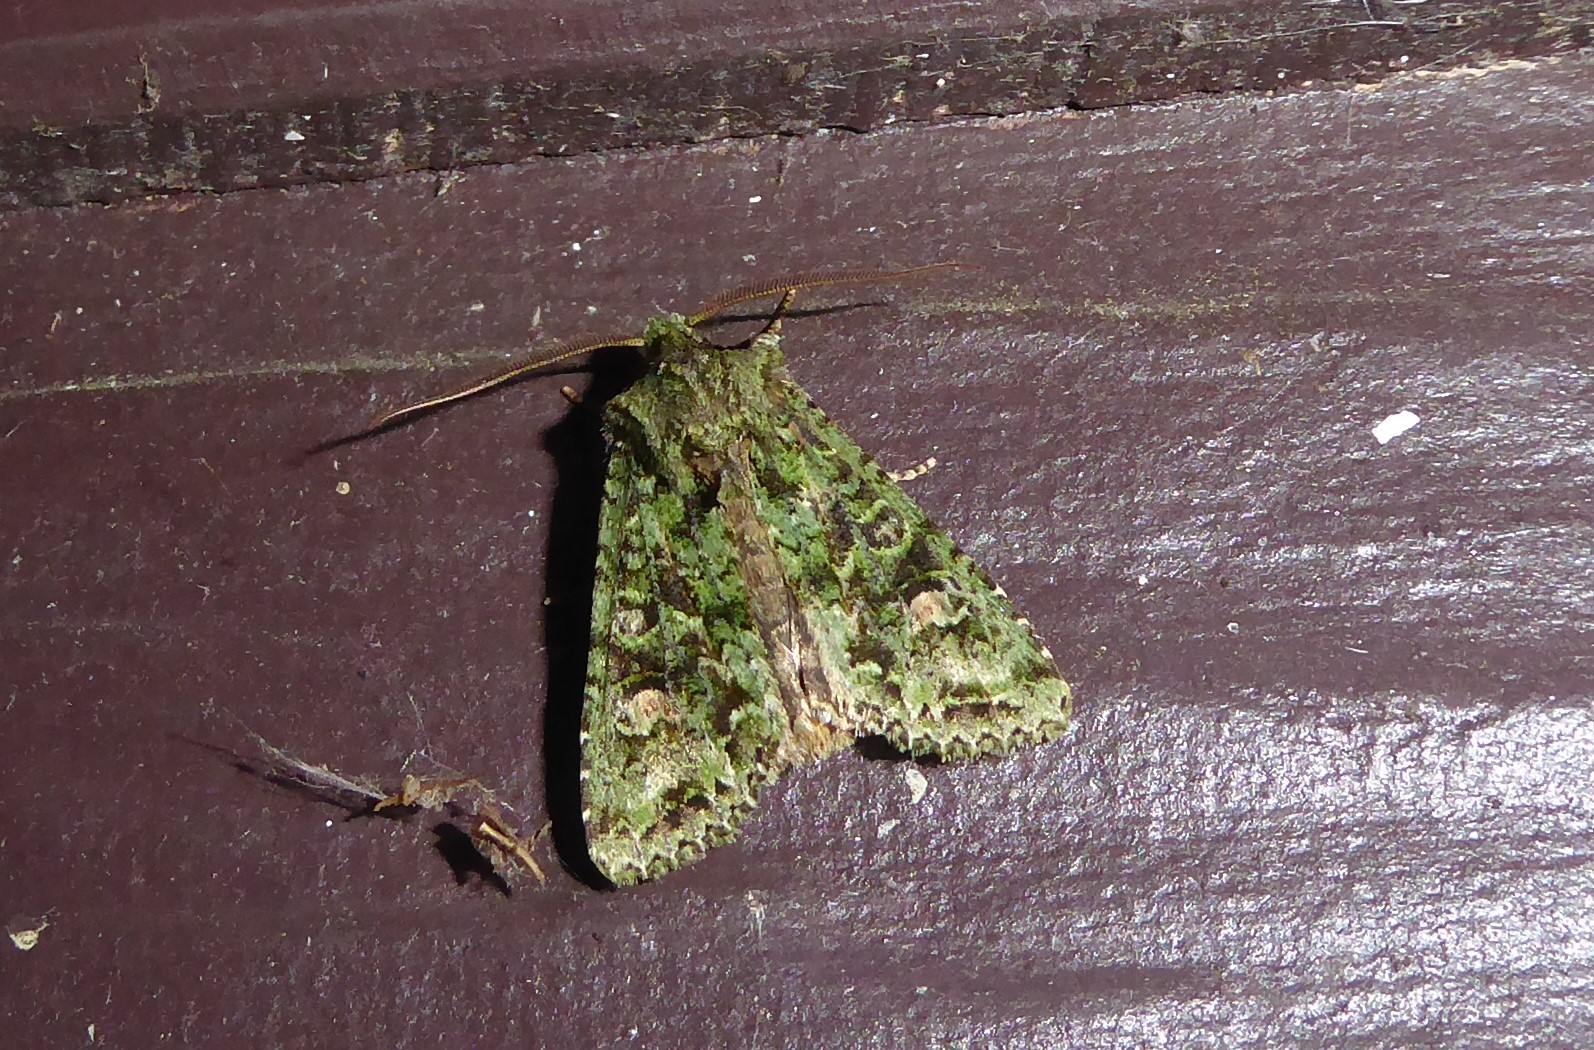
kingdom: Animalia
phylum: Arthropoda
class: Insecta
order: Lepidoptera
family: Noctuidae
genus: Ichneutica
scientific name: Ichneutica
